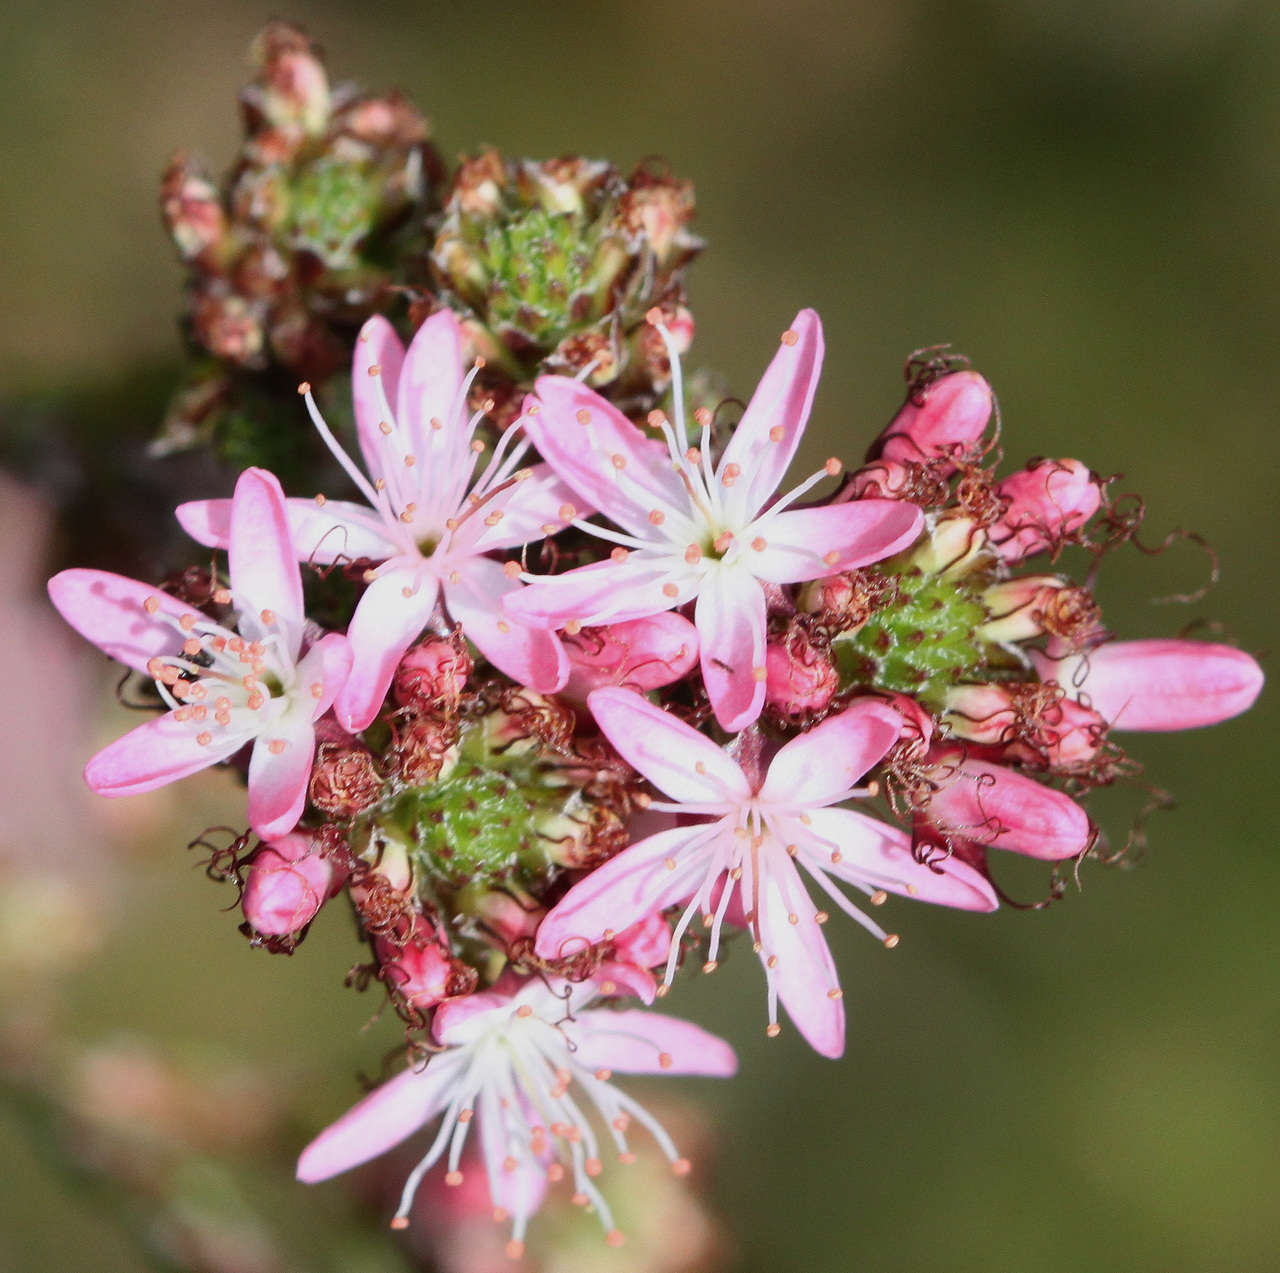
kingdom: Plantae
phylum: Tracheophyta
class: Magnoliopsida
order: Myrtales
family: Myrtaceae
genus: Calytrix
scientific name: Calytrix tetragona
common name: Common fringe myrtle
